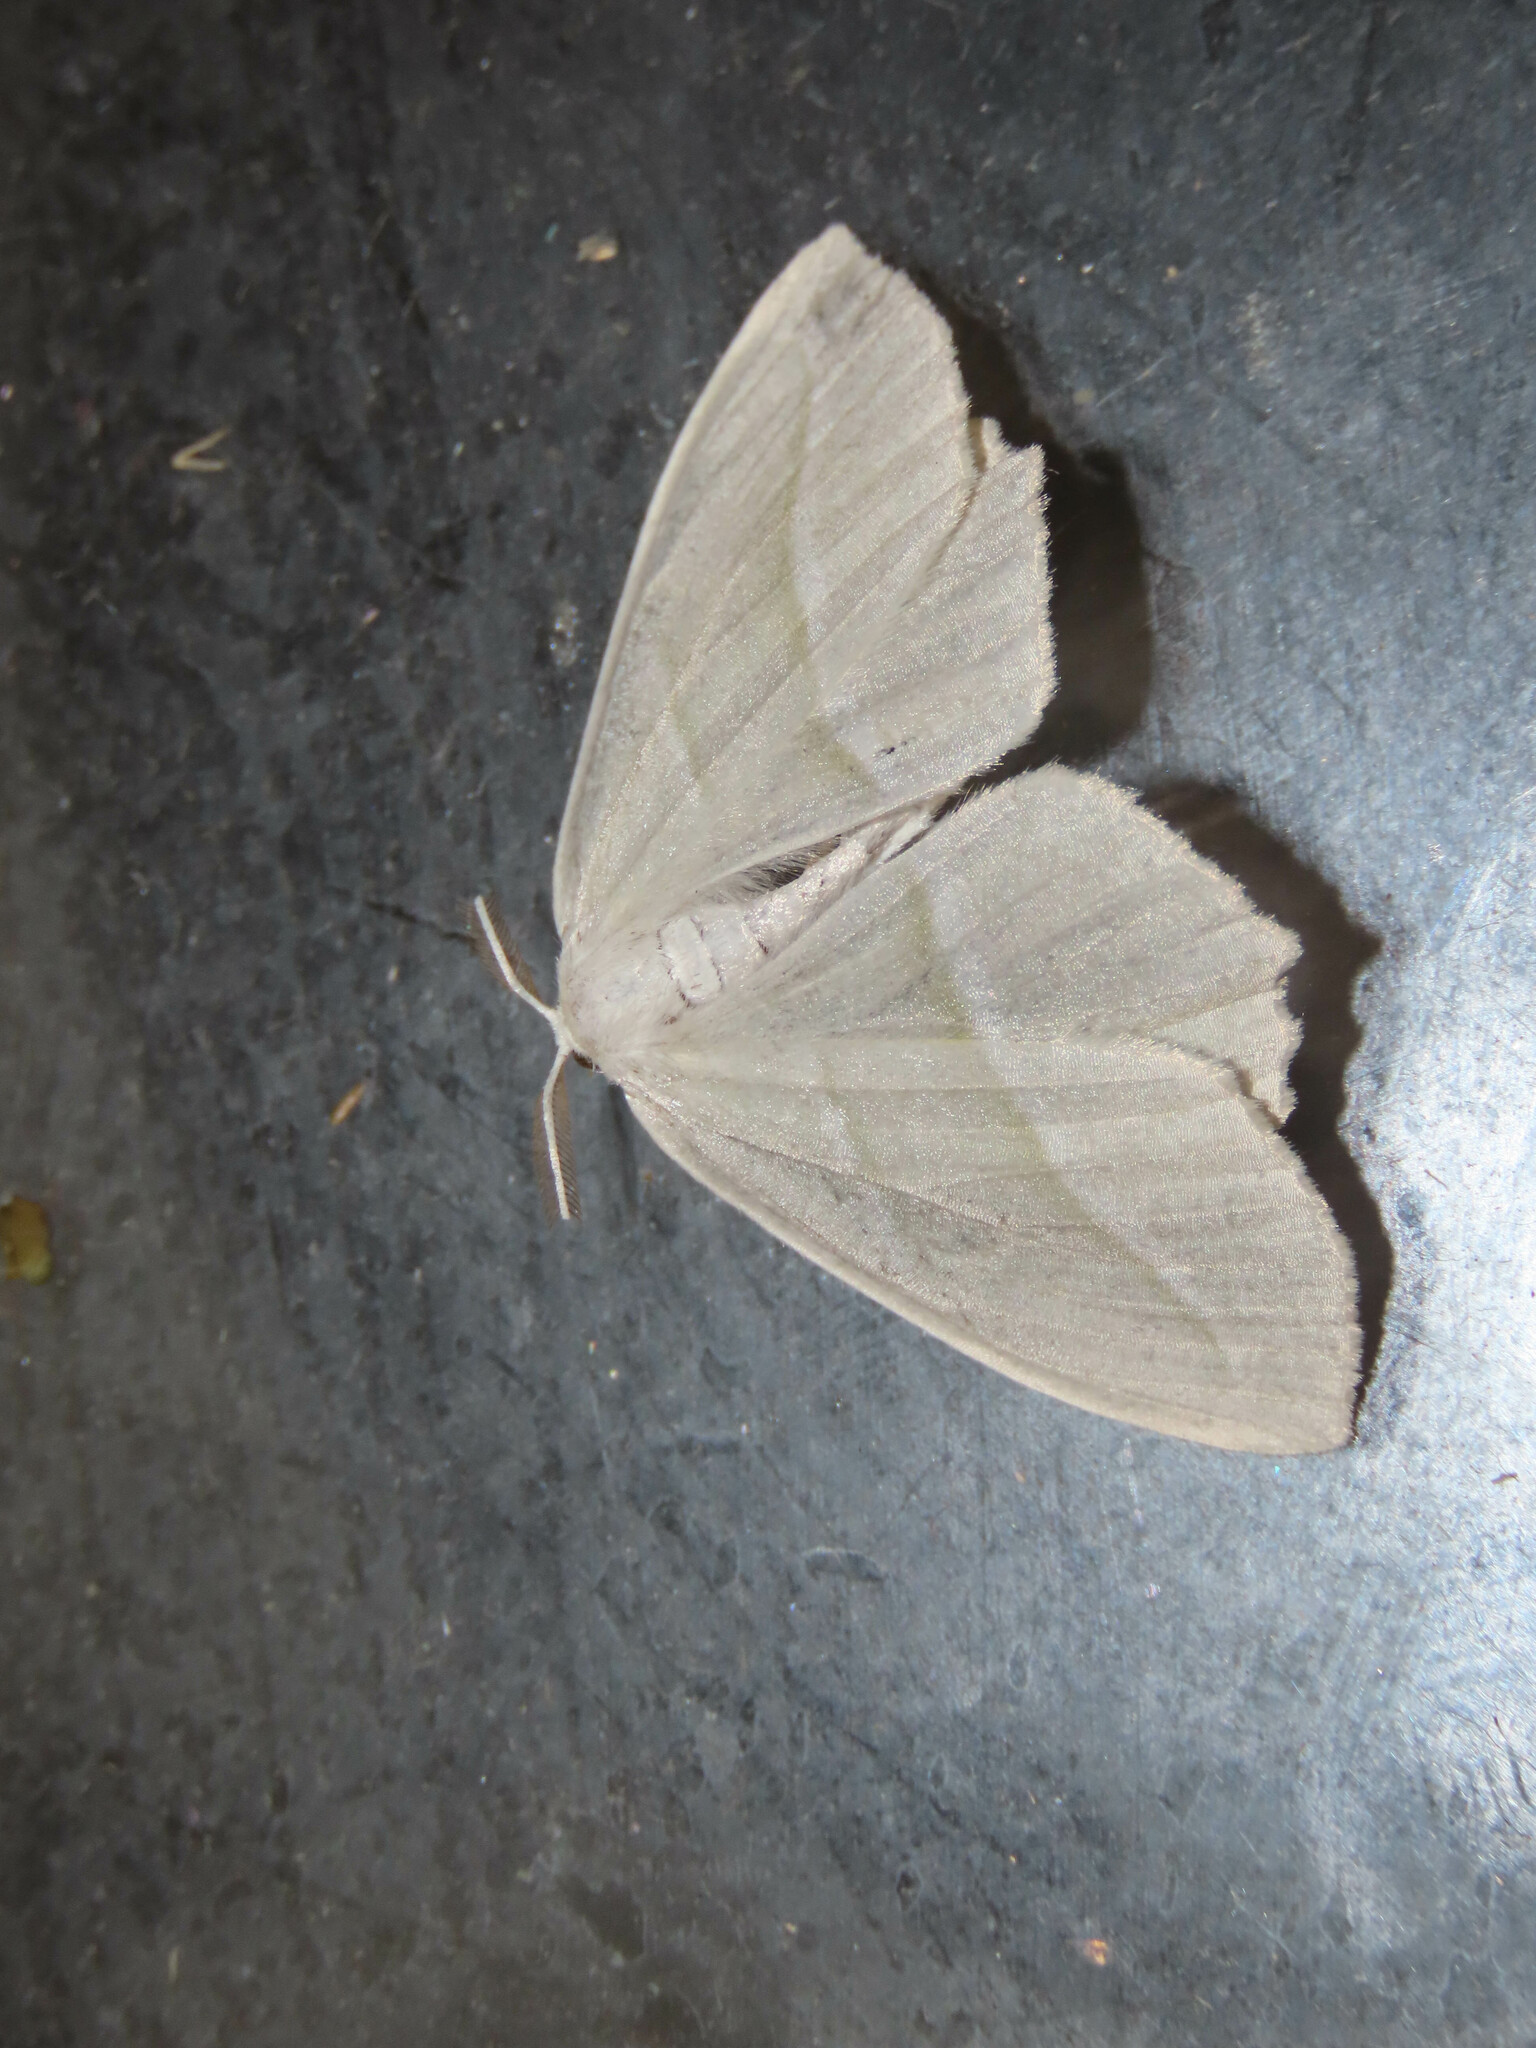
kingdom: Animalia
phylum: Arthropoda
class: Insecta
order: Lepidoptera
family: Geometridae
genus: Campaea
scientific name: Campaea perlata
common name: Fringed looper
